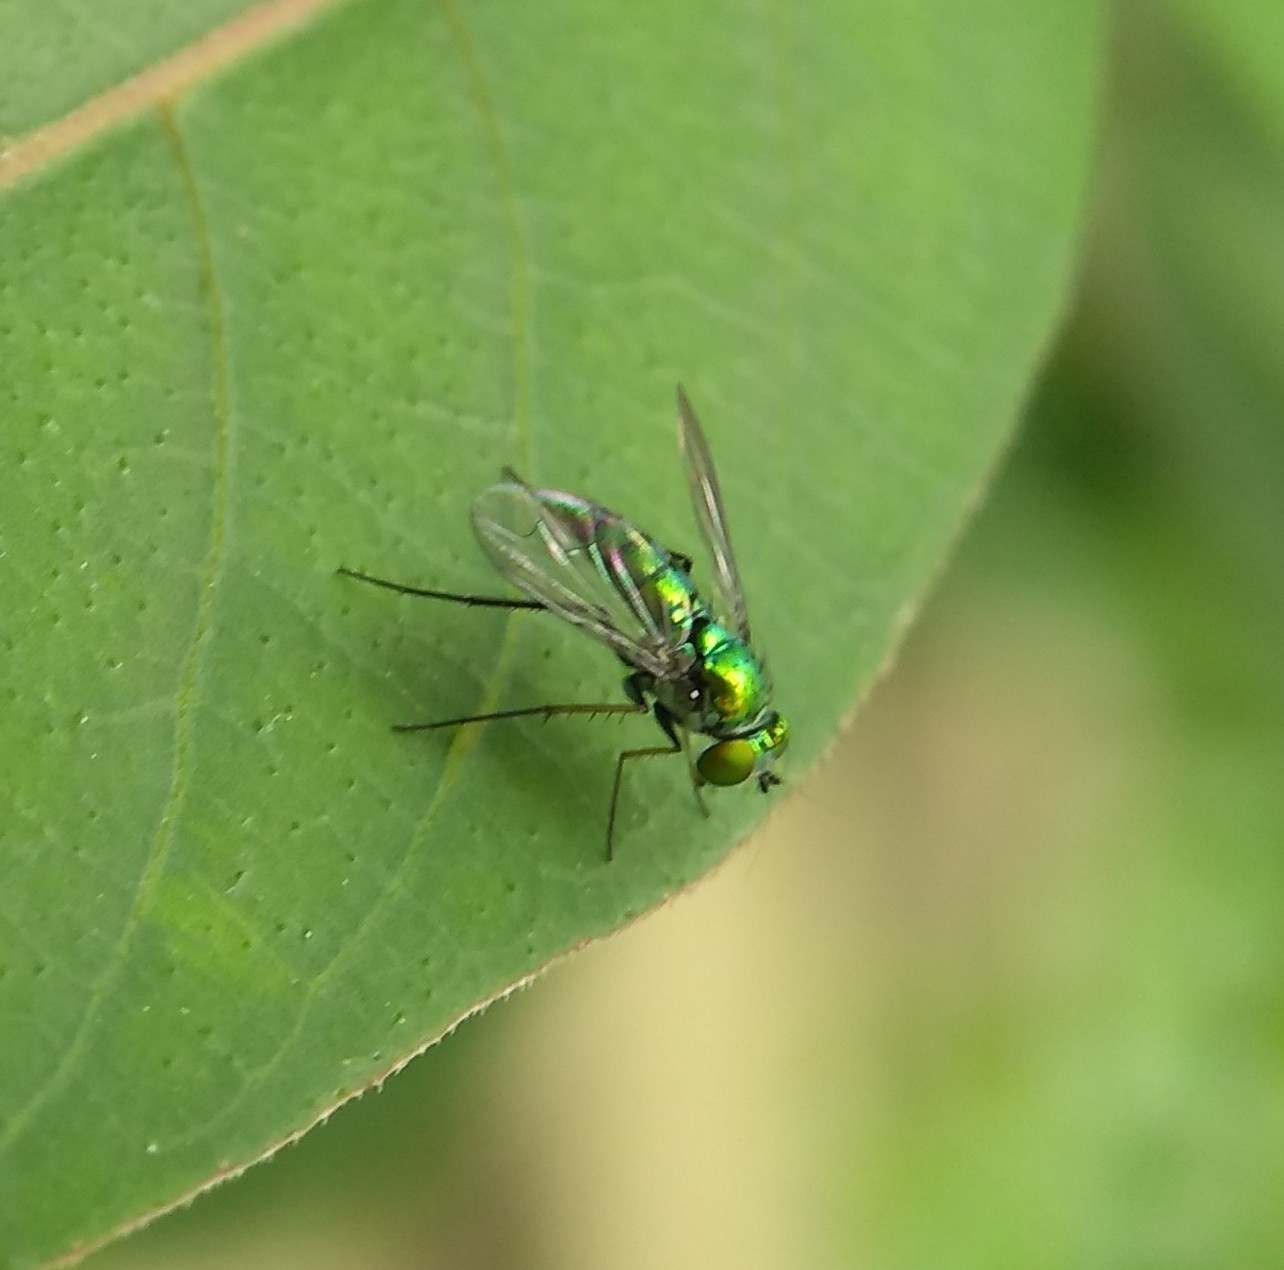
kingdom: Animalia
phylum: Arthropoda
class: Insecta
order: Diptera
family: Dolichopodidae
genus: Condylostylus
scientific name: Condylostylus longicornis
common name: Long-legged fly
